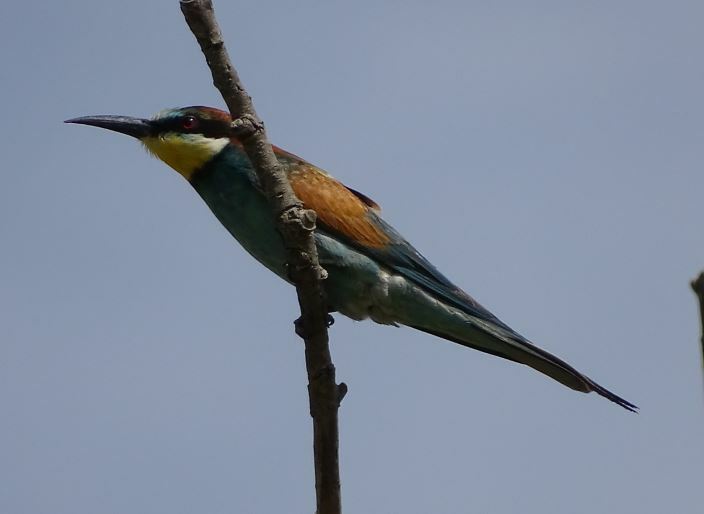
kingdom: Animalia
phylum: Chordata
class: Aves
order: Coraciiformes
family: Meropidae
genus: Merops
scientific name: Merops apiaster
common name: European bee-eater
